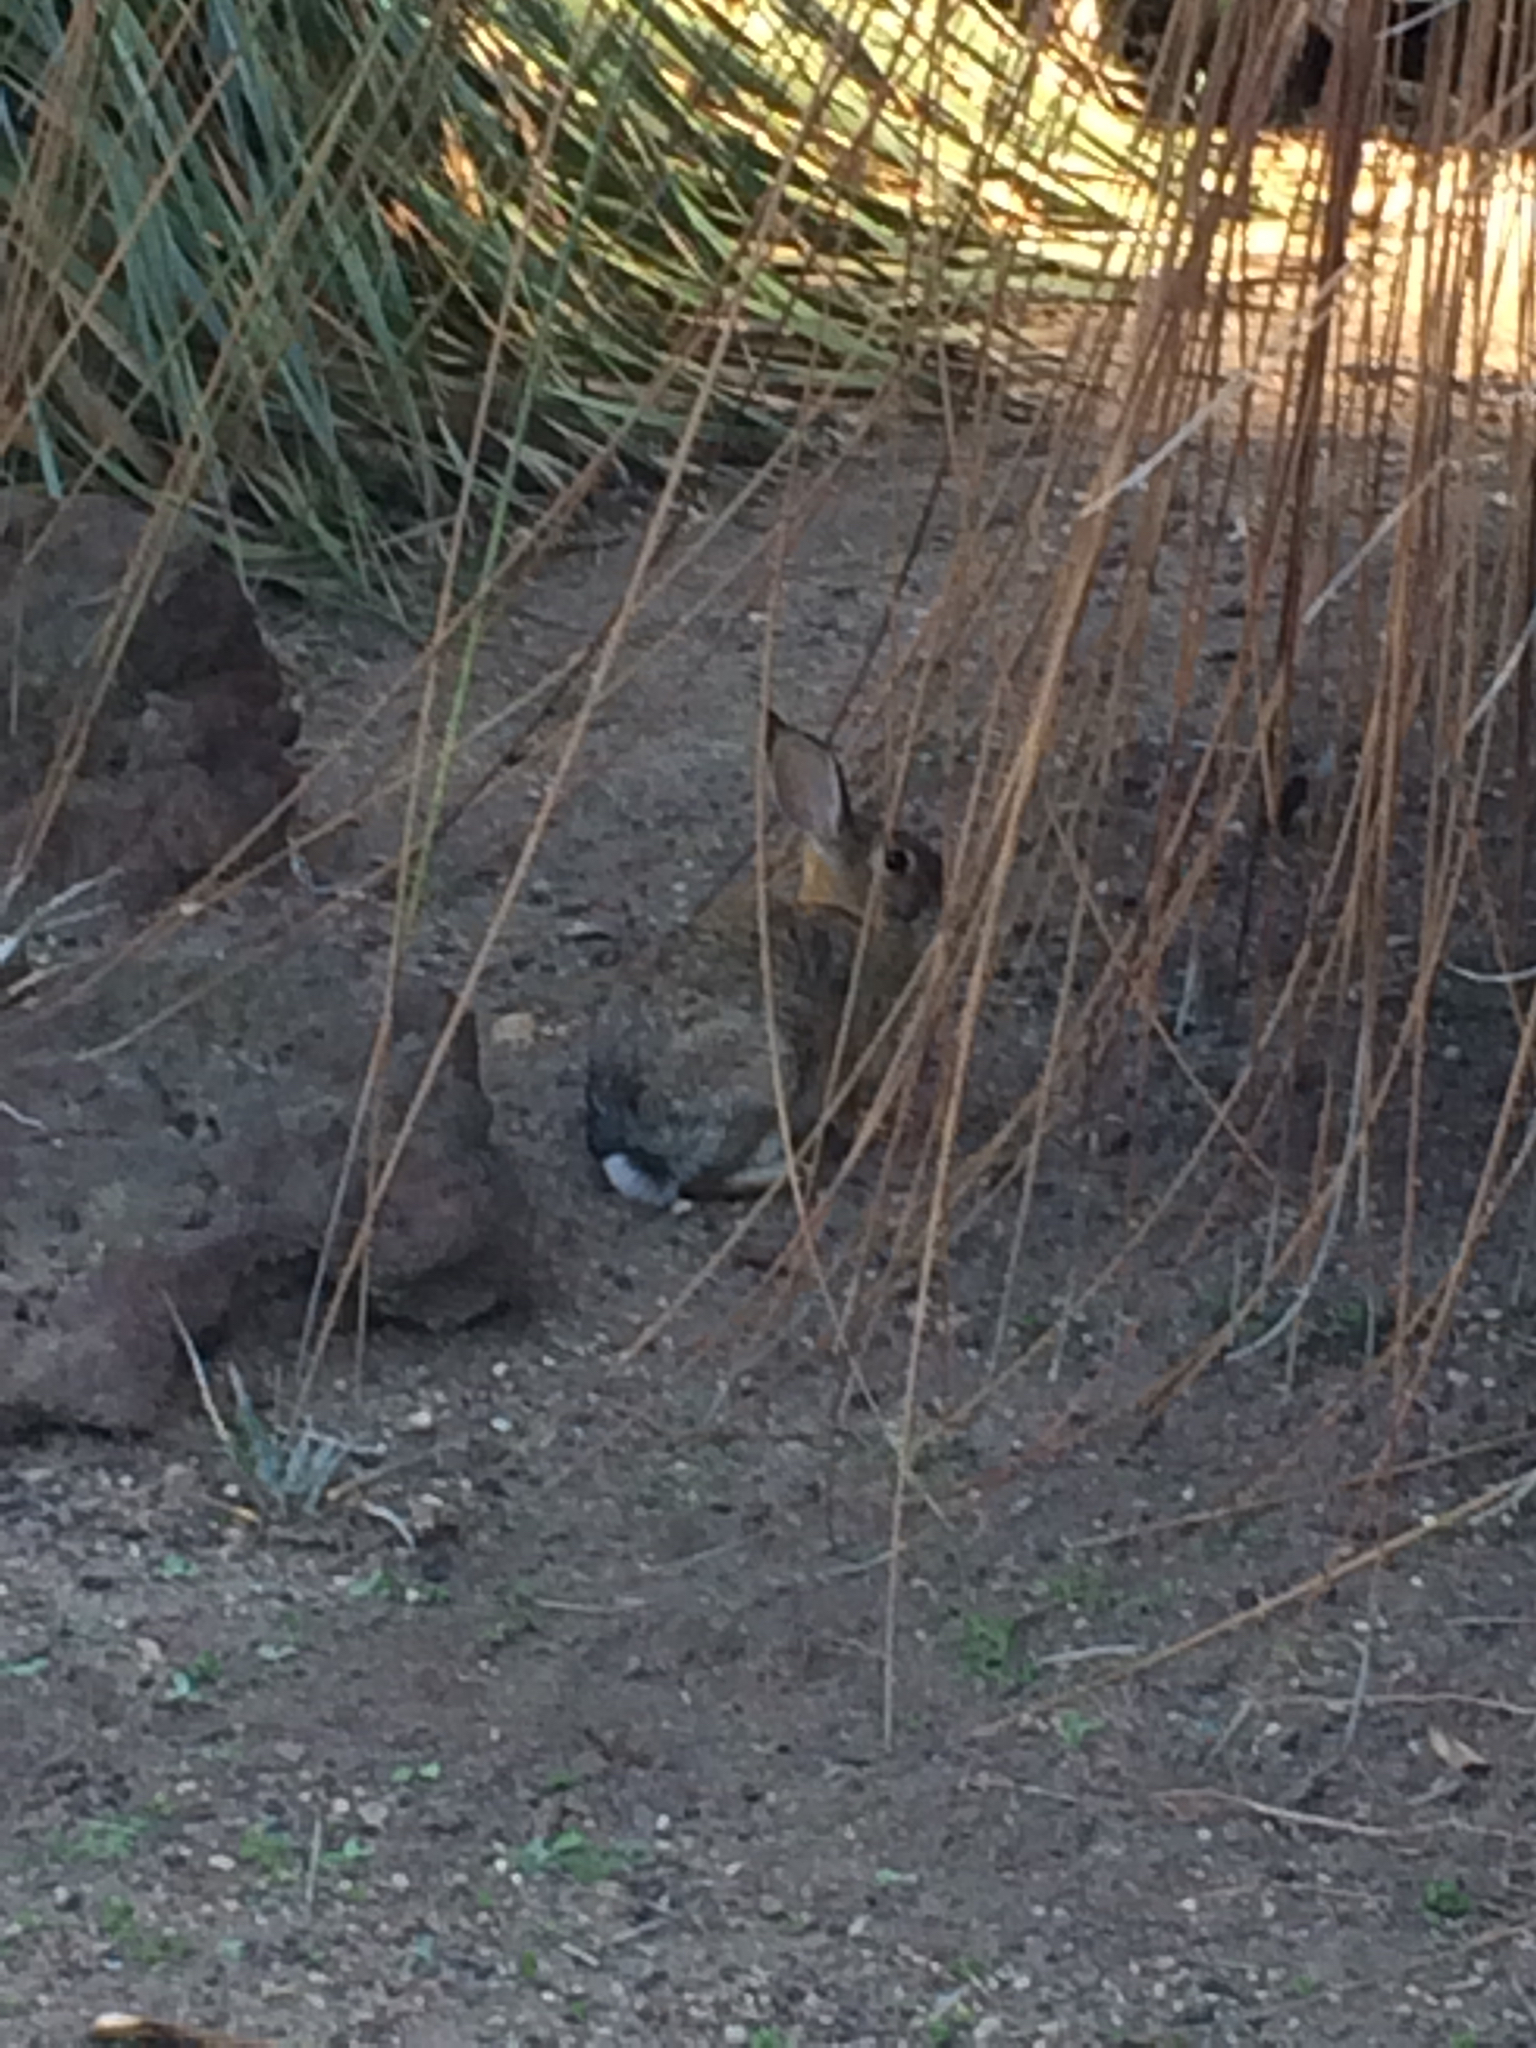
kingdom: Animalia
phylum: Chordata
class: Mammalia
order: Lagomorpha
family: Leporidae
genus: Sylvilagus
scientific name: Sylvilagus audubonii
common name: Desert cottontail
